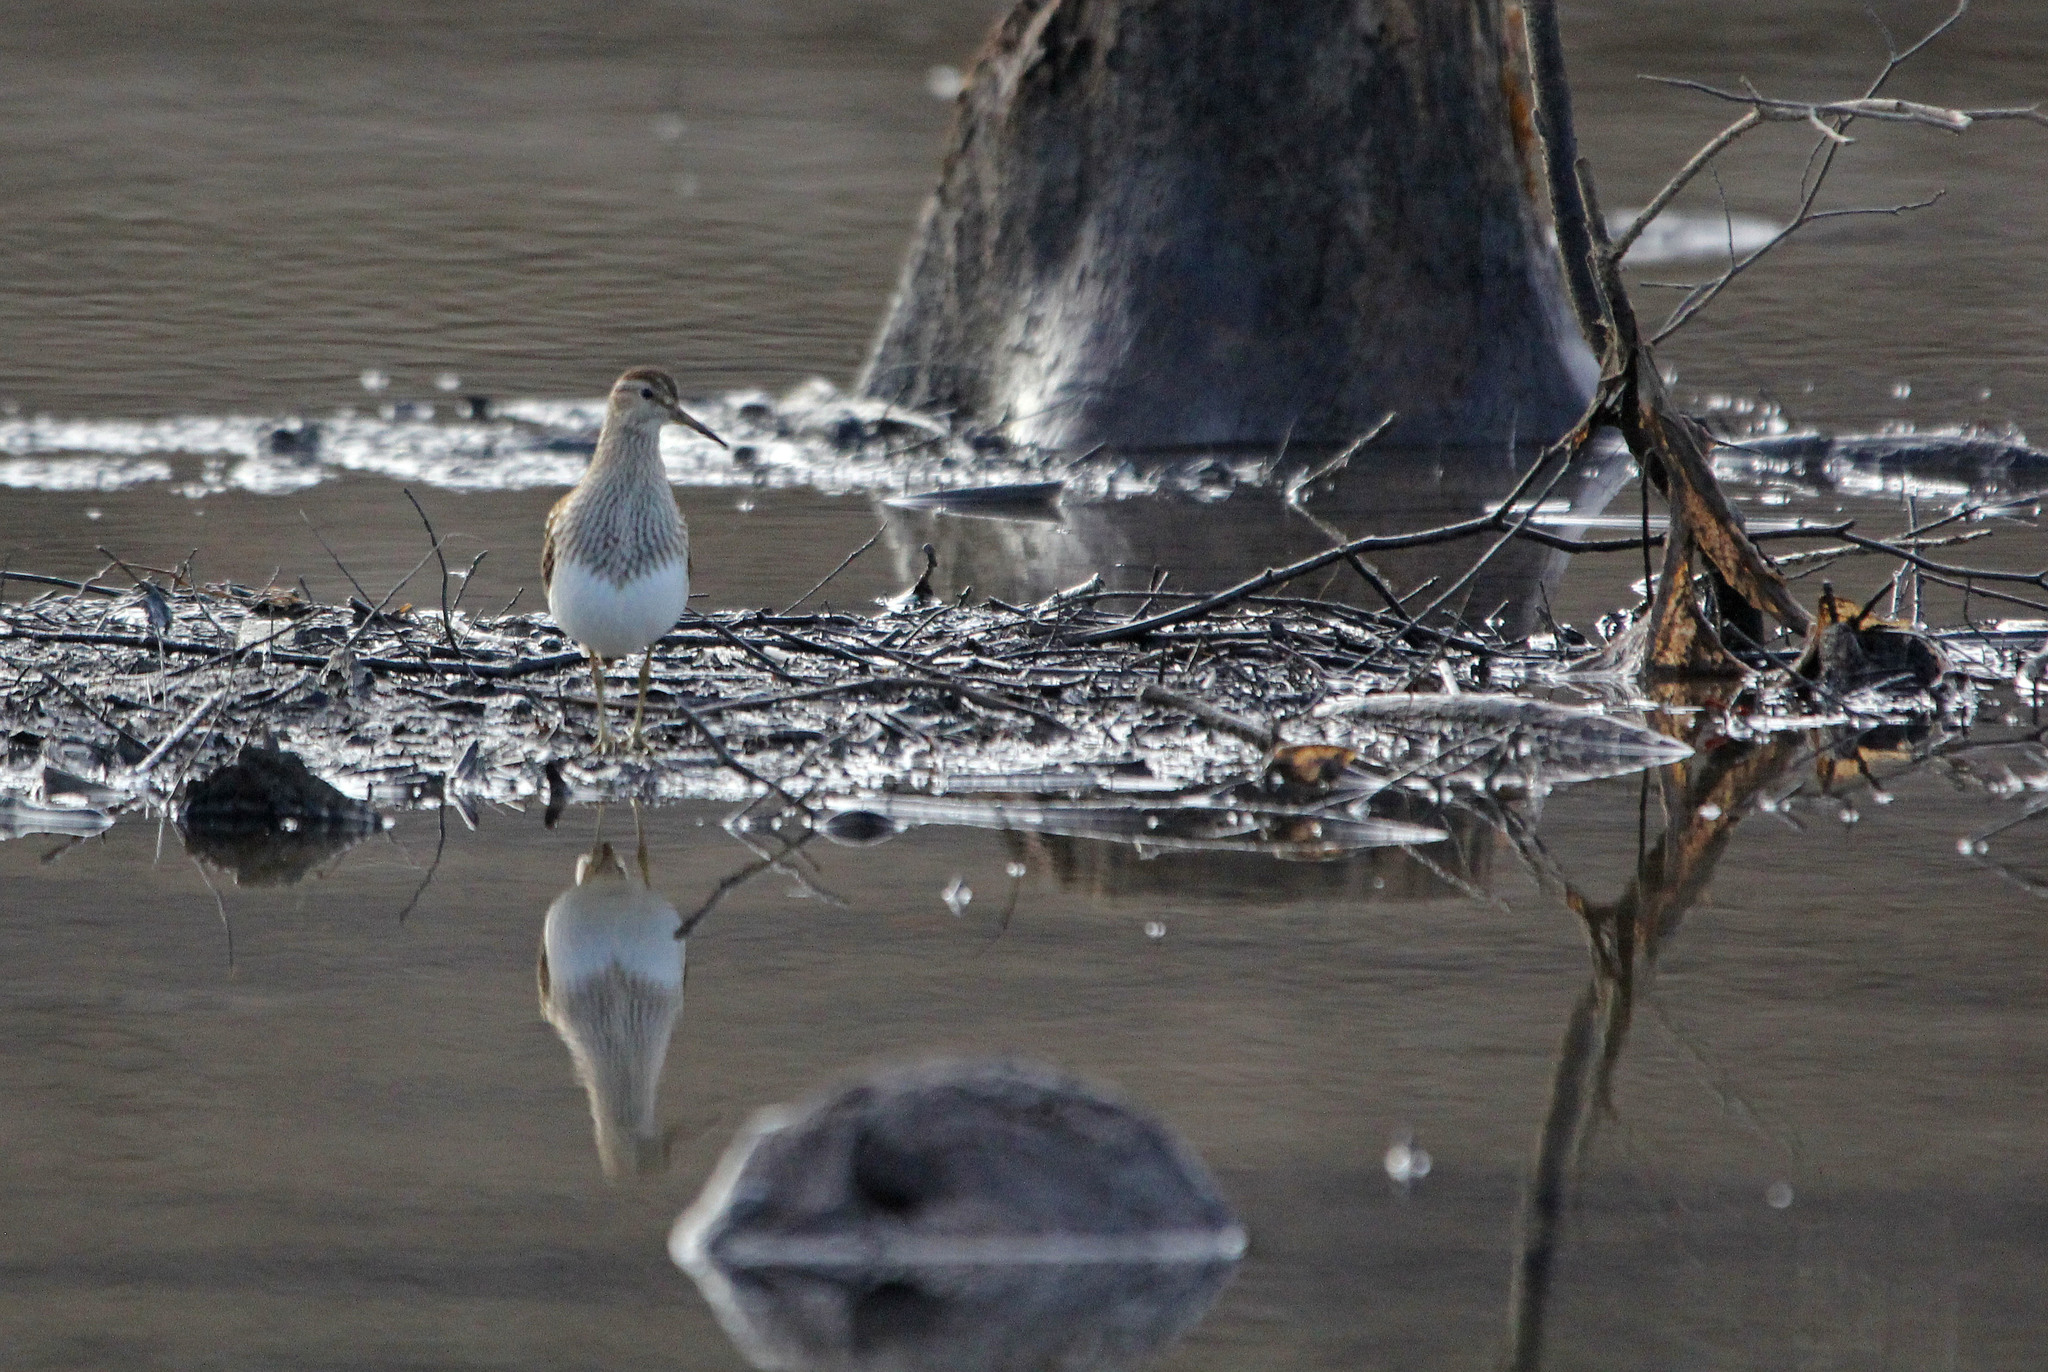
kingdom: Animalia
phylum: Chordata
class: Aves
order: Charadriiformes
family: Scolopacidae
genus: Calidris
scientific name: Calidris melanotos
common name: Pectoral sandpiper
